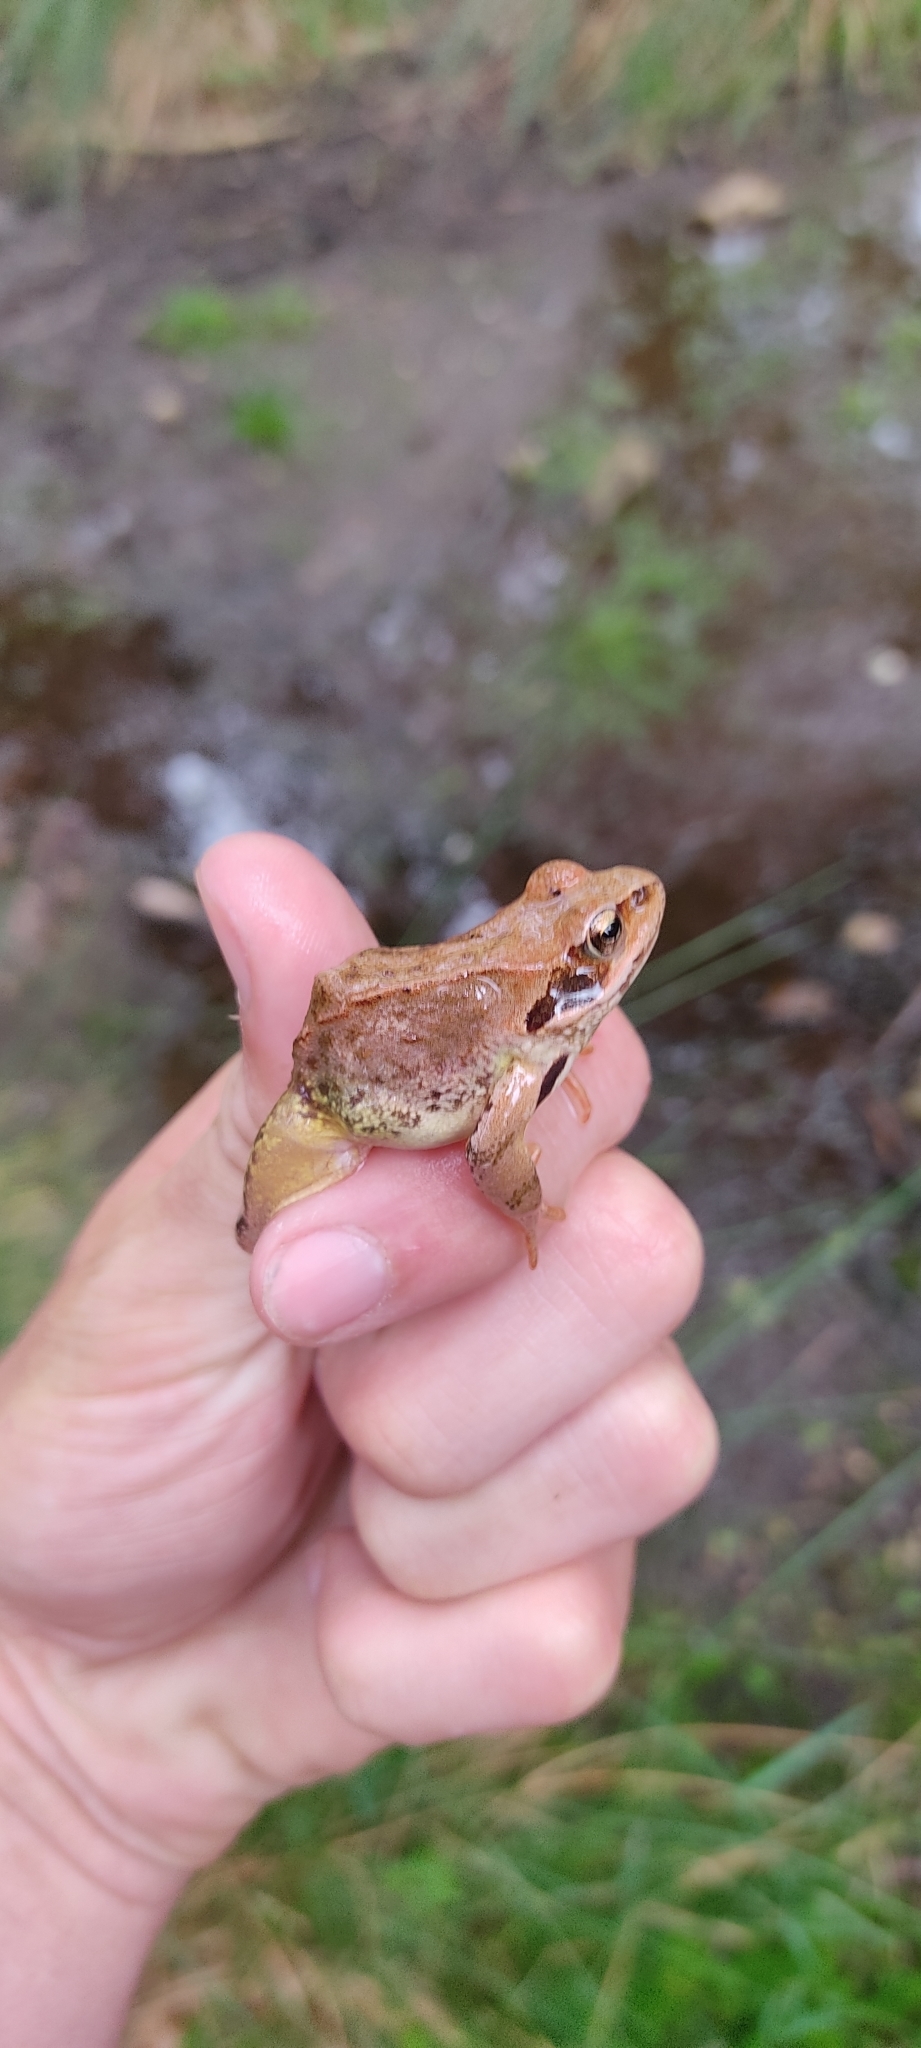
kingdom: Animalia
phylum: Chordata
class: Amphibia
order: Anura
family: Ranidae
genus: Rana
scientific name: Rana temporaria
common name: Common frog
